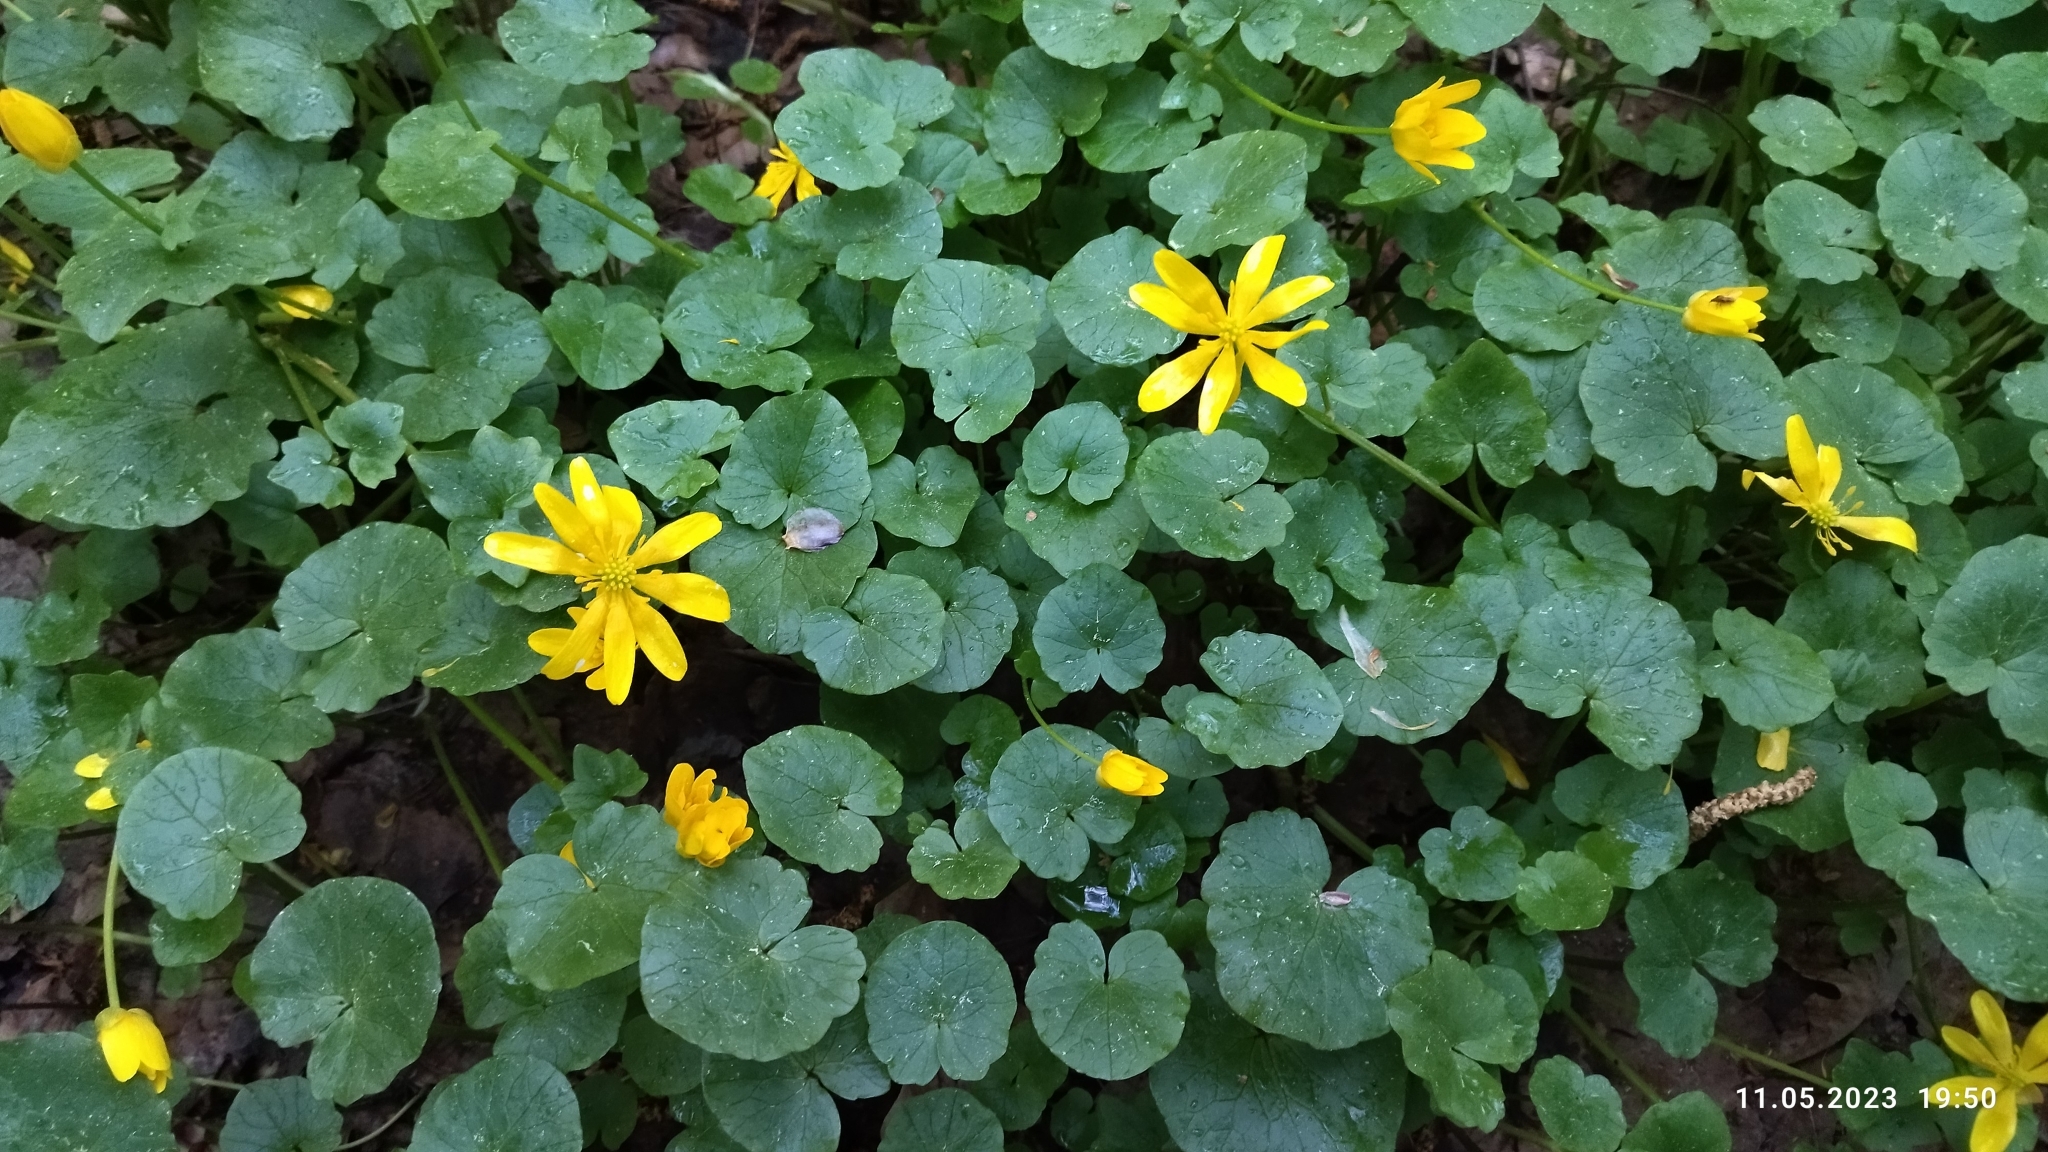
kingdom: Plantae
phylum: Tracheophyta
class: Magnoliopsida
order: Ranunculales
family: Ranunculaceae
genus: Ficaria
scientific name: Ficaria verna
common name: Lesser celandine
